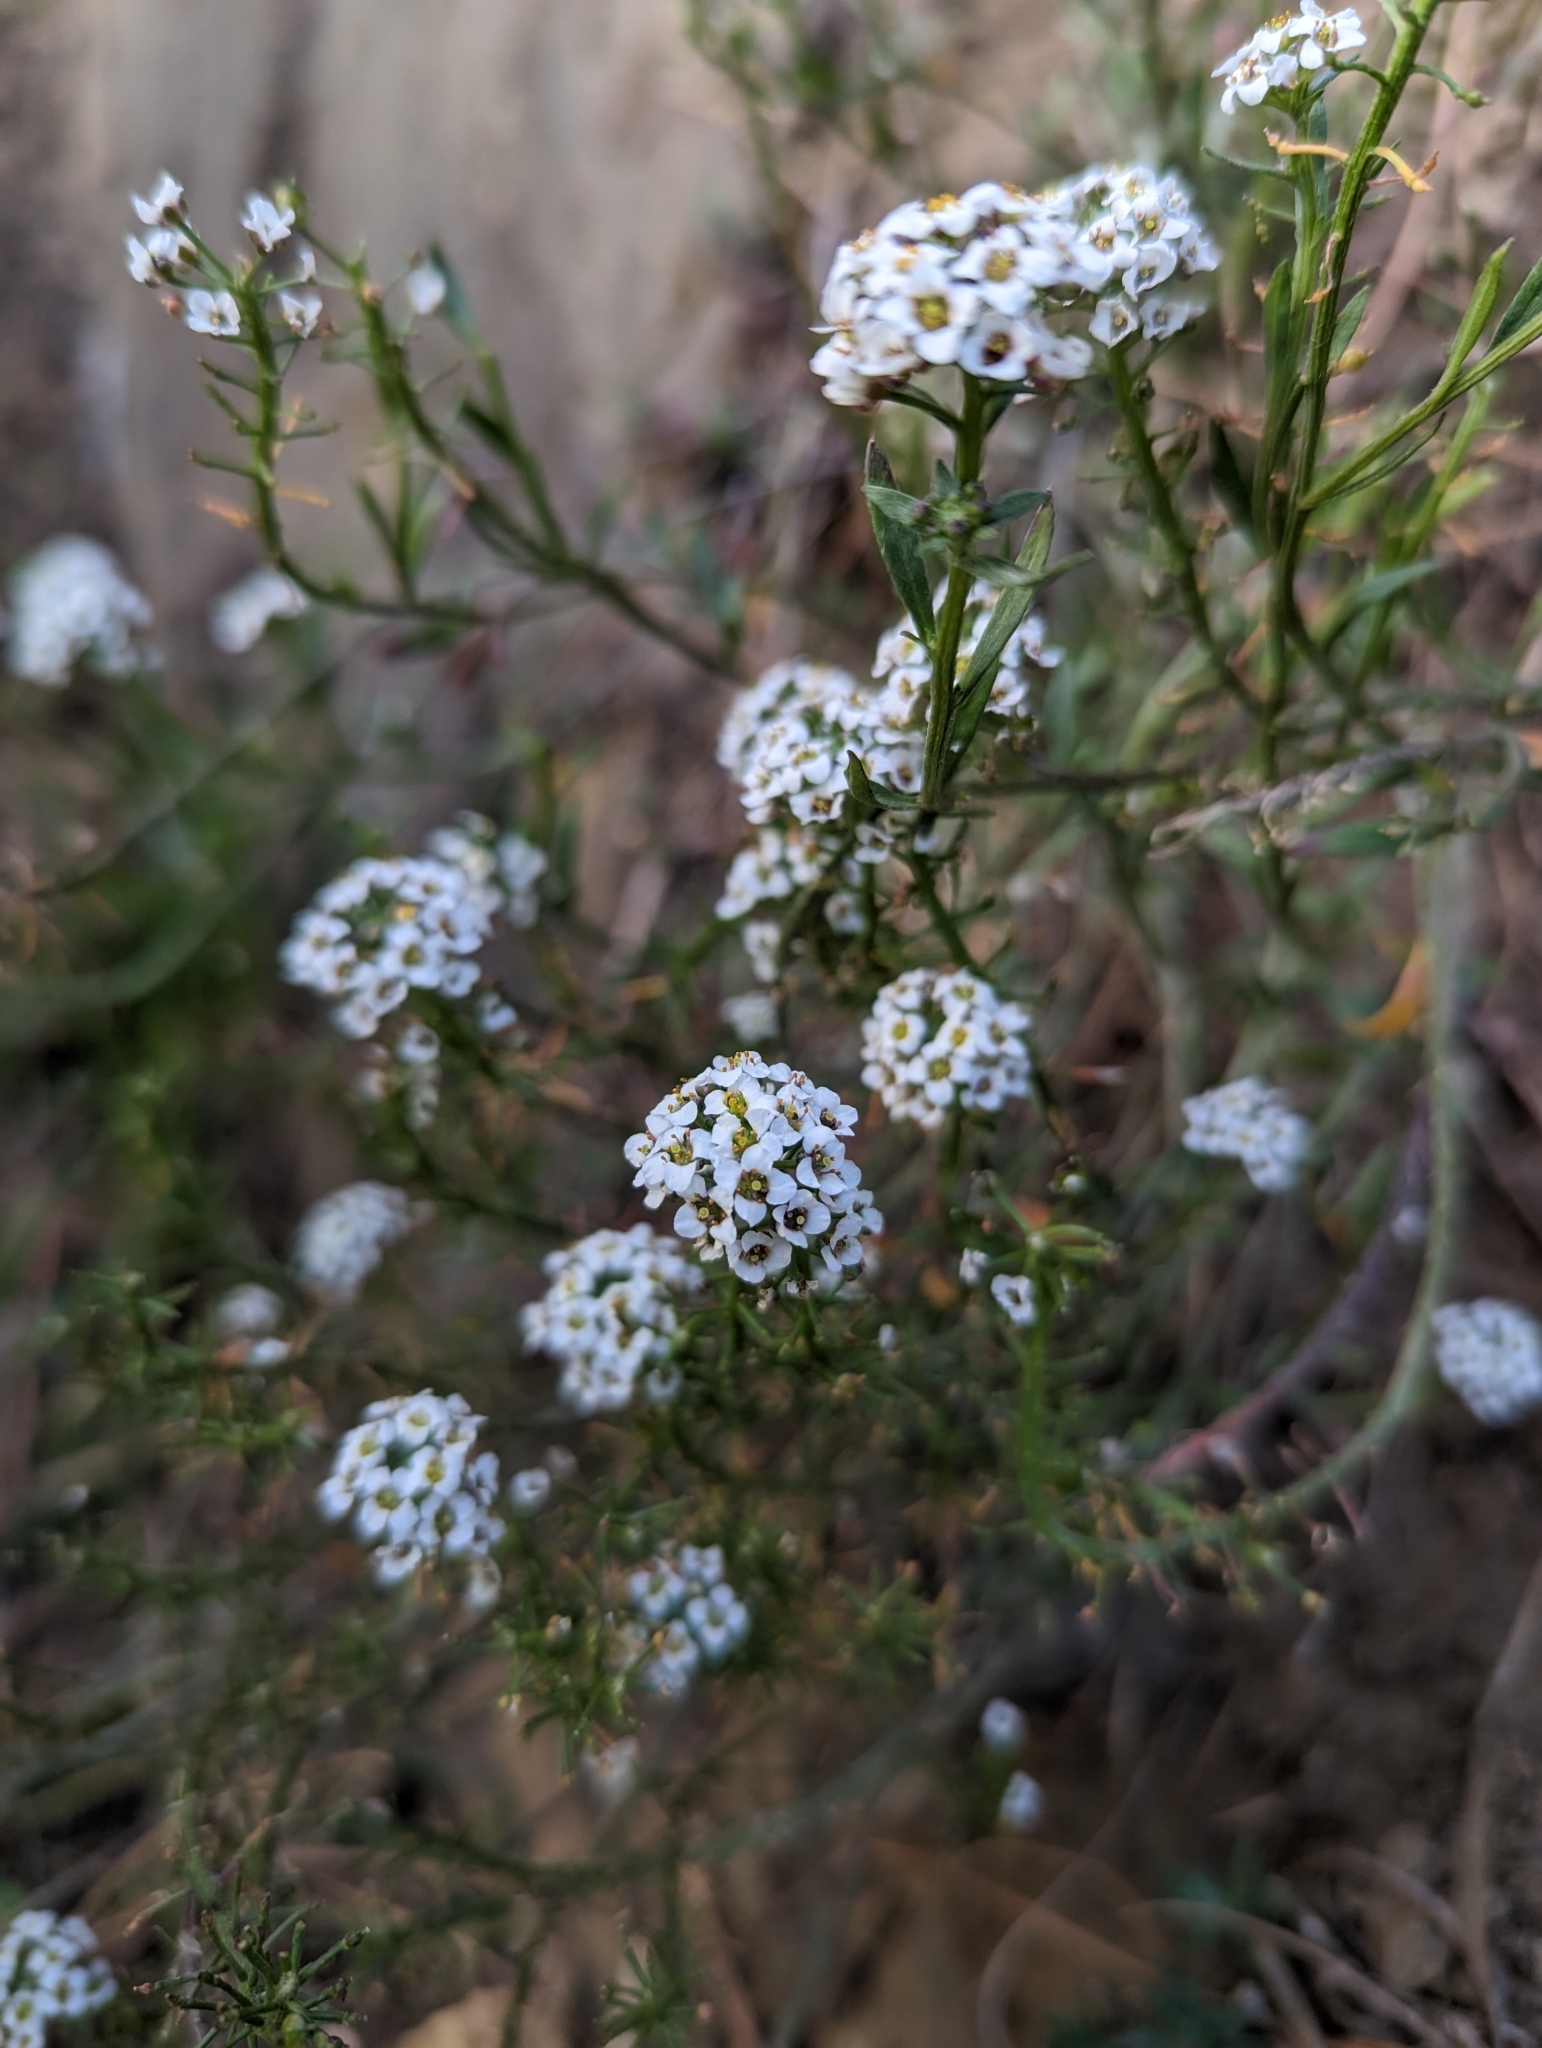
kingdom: Plantae
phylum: Tracheophyta
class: Magnoliopsida
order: Brassicales
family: Brassicaceae
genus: Lobularia
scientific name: Lobularia maritima
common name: Sweet alison
